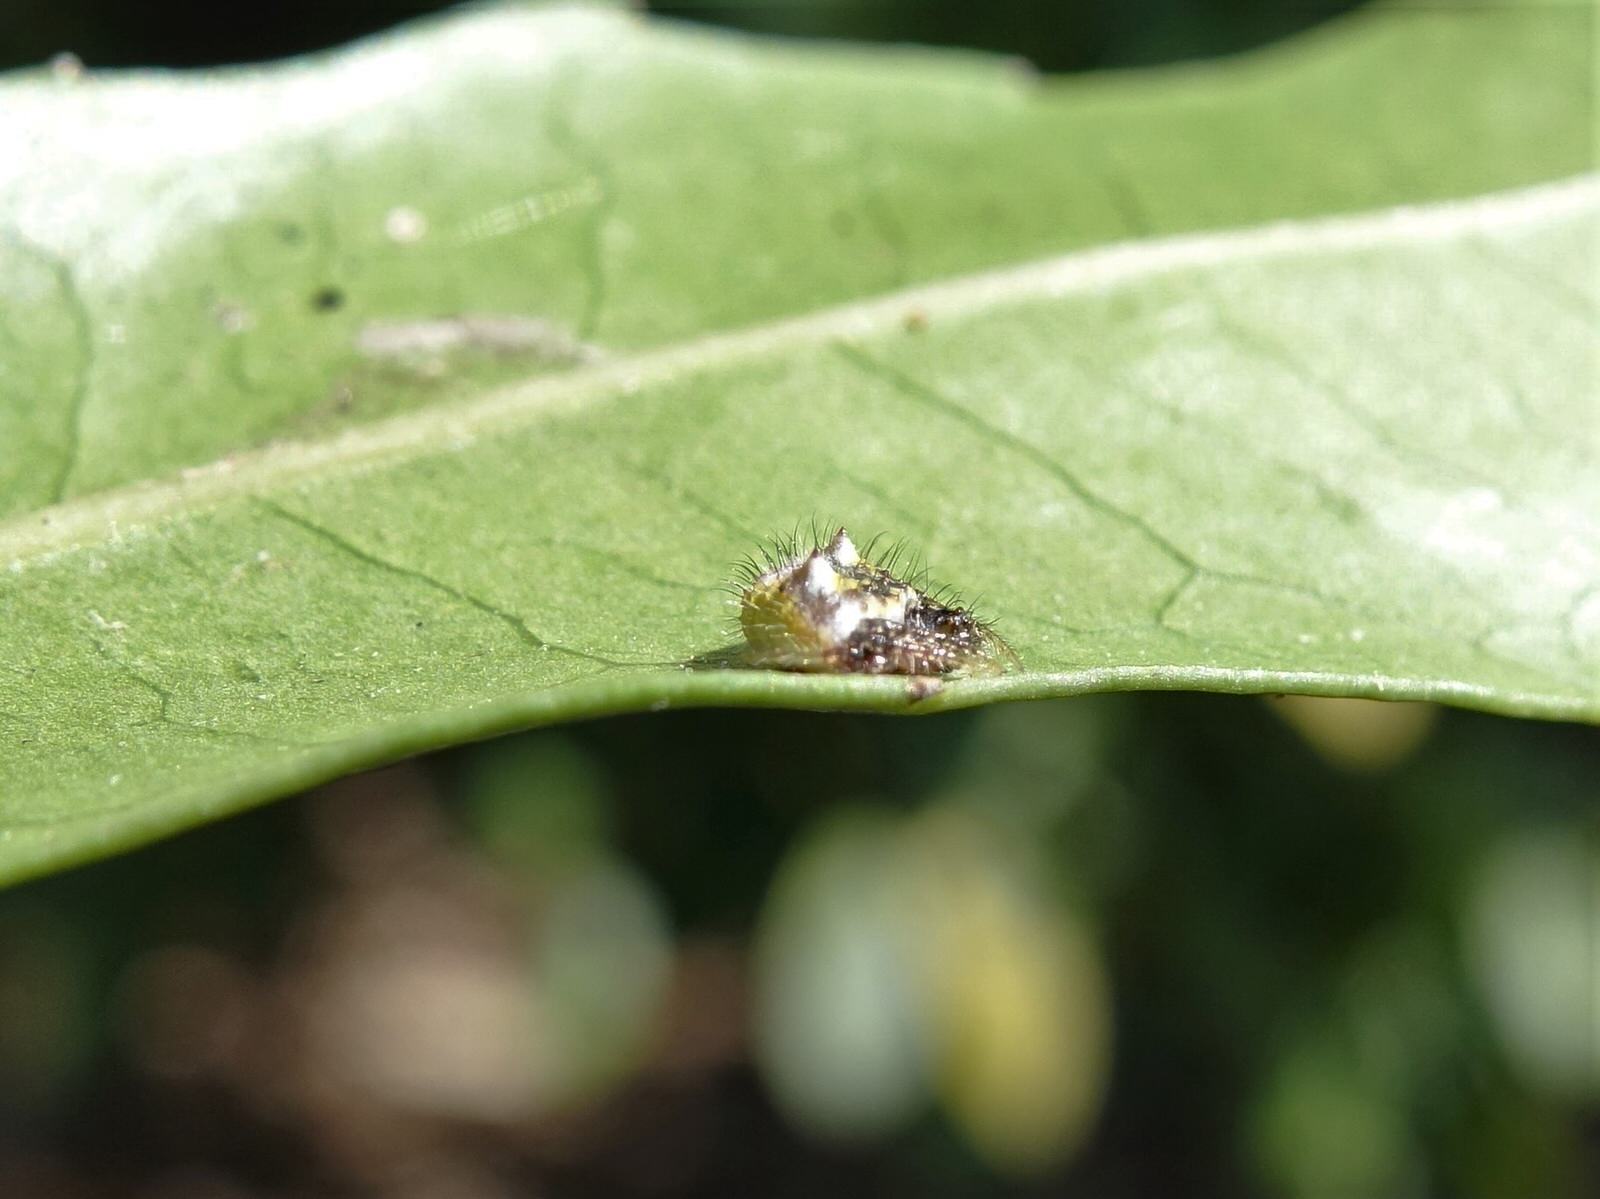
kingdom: Animalia
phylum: Arthropoda
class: Arachnida
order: Araneae
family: Araneidae
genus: Poecilopachys
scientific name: Poecilopachys australasia
